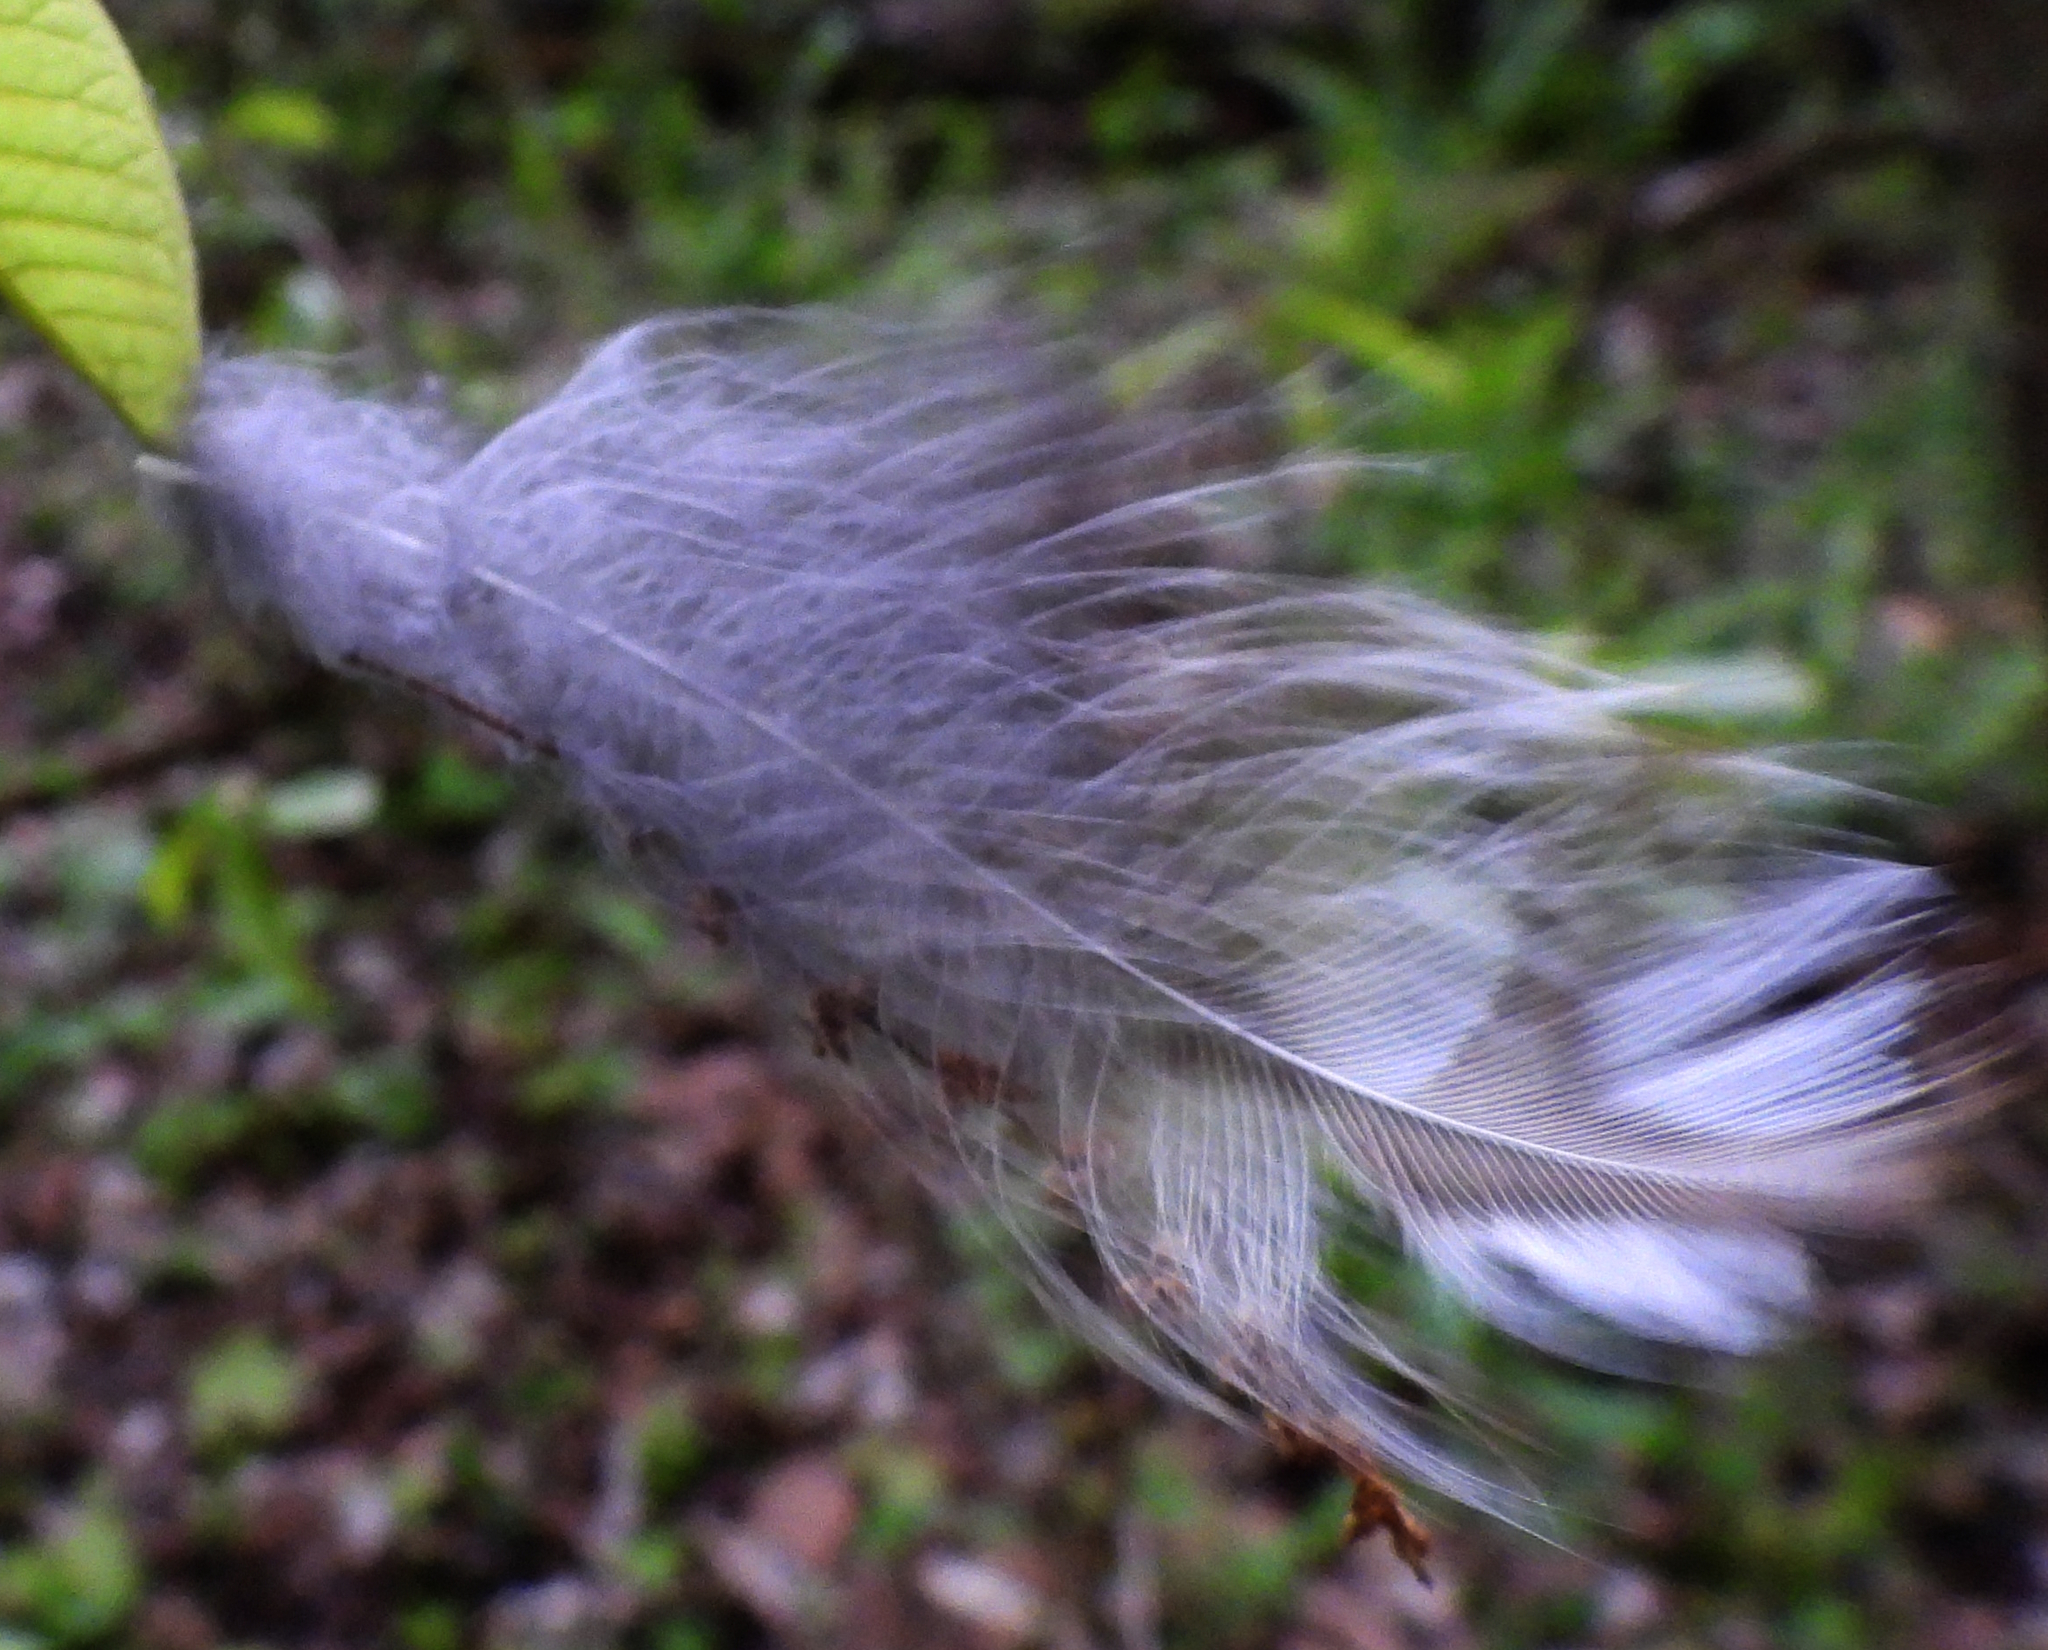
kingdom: Animalia
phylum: Chordata
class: Aves
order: Strigiformes
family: Strigidae
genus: Strix
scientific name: Strix varia
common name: Barred owl
